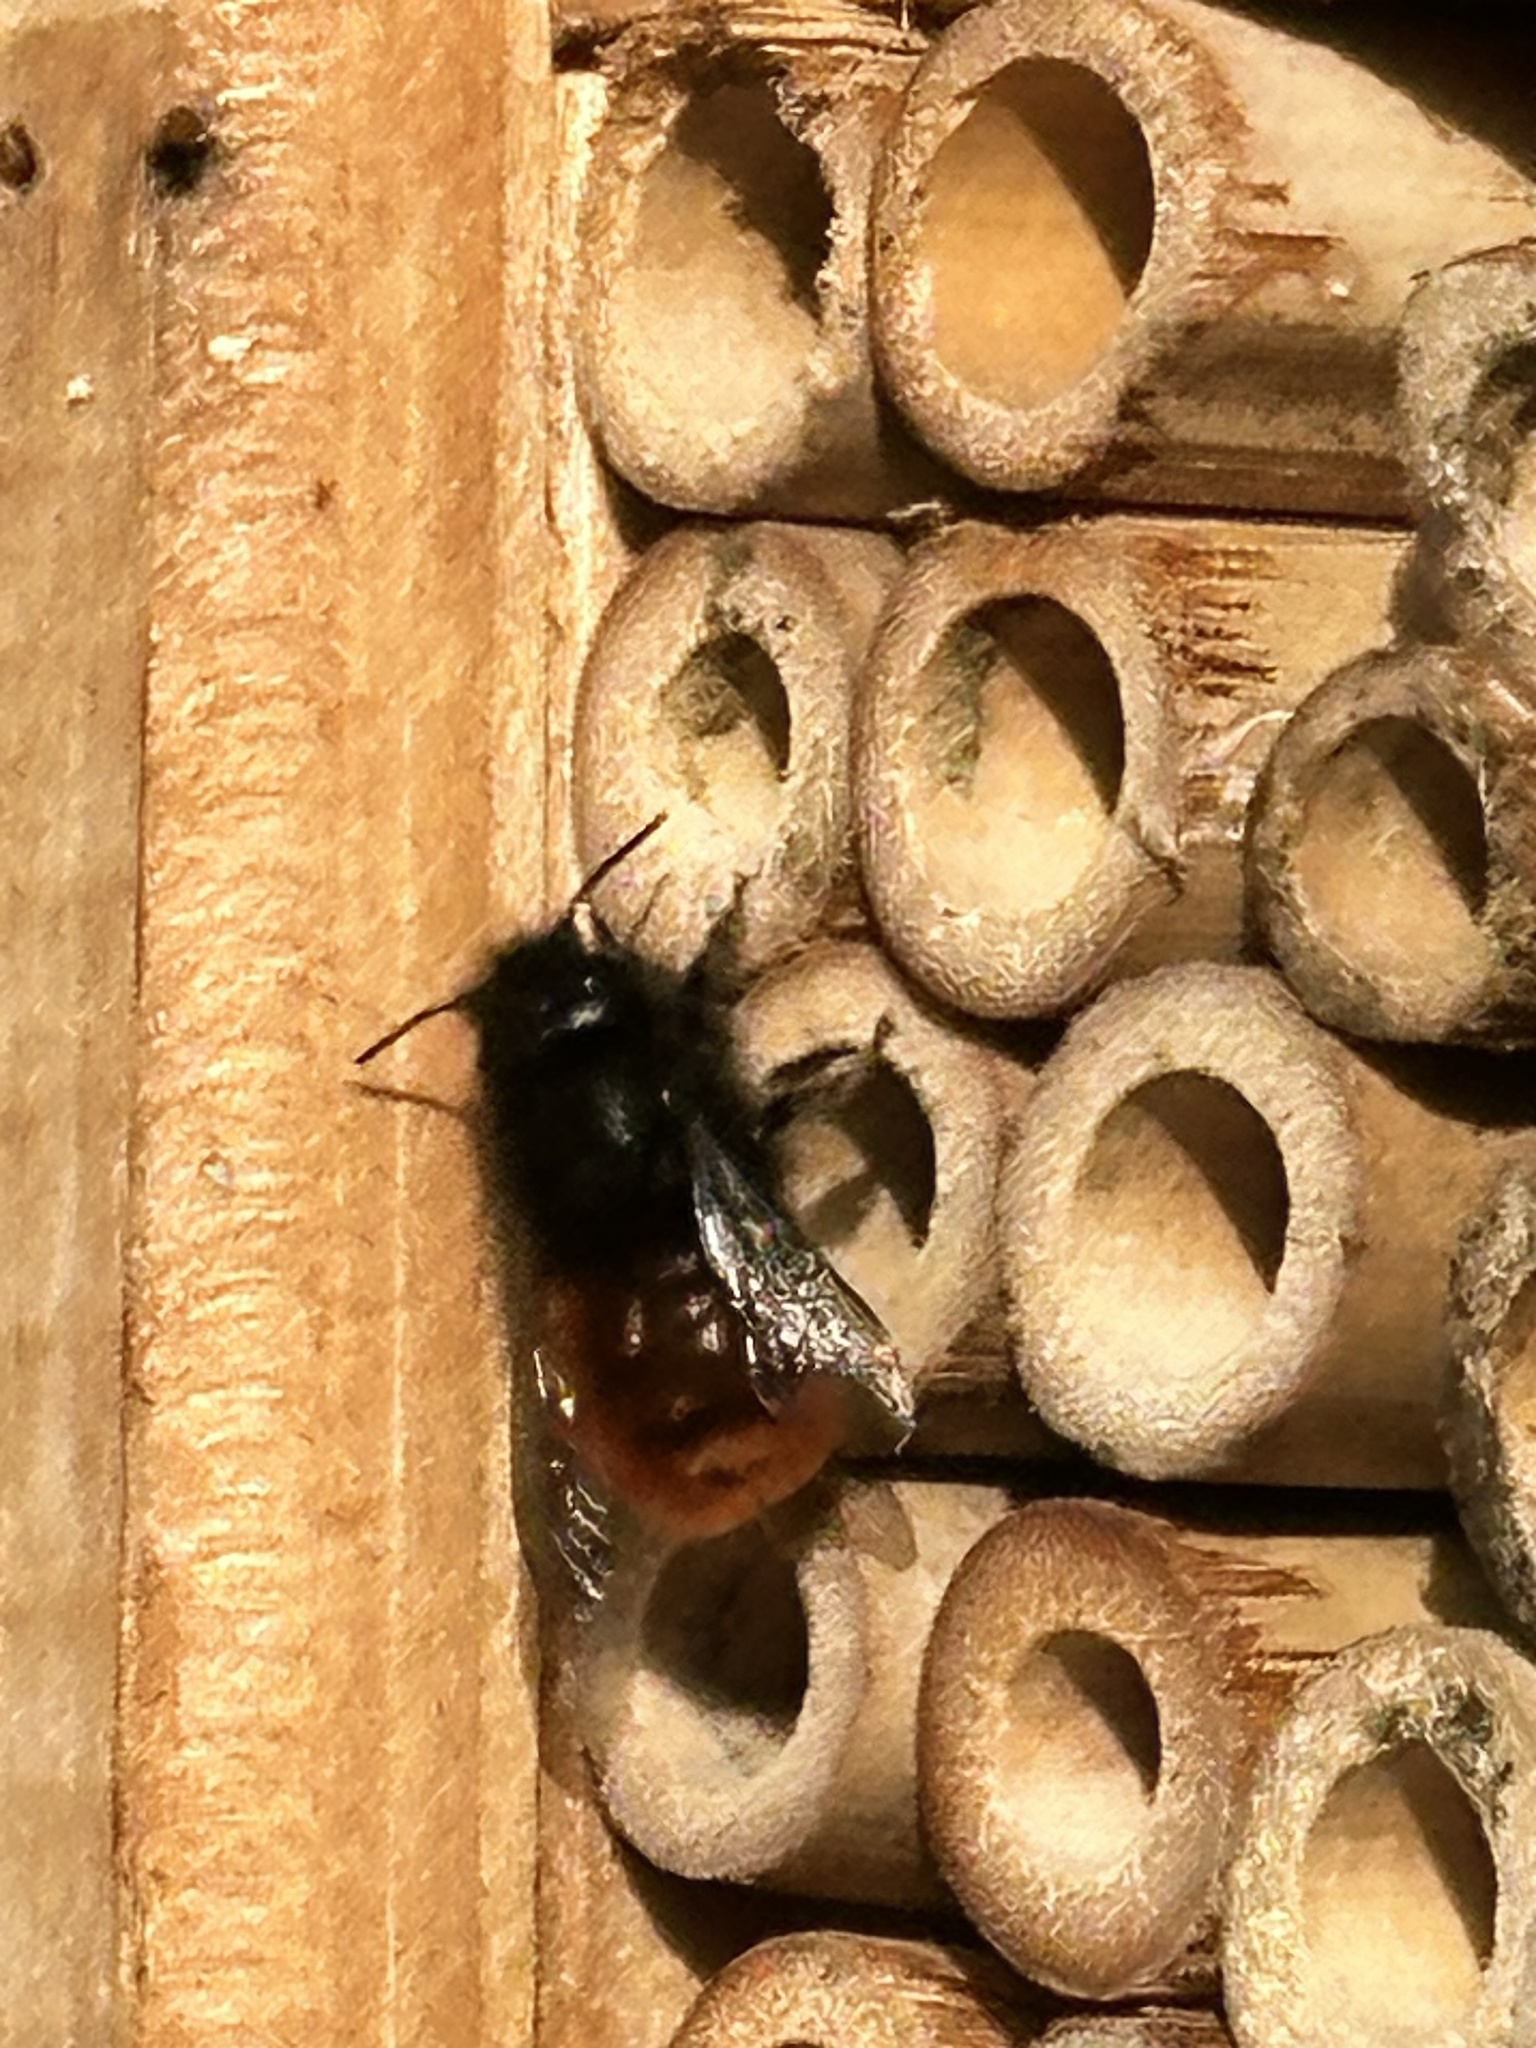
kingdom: Animalia
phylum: Arthropoda
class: Insecta
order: Hymenoptera
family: Megachilidae
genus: Osmia
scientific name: Osmia cornuta
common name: Mason bee
